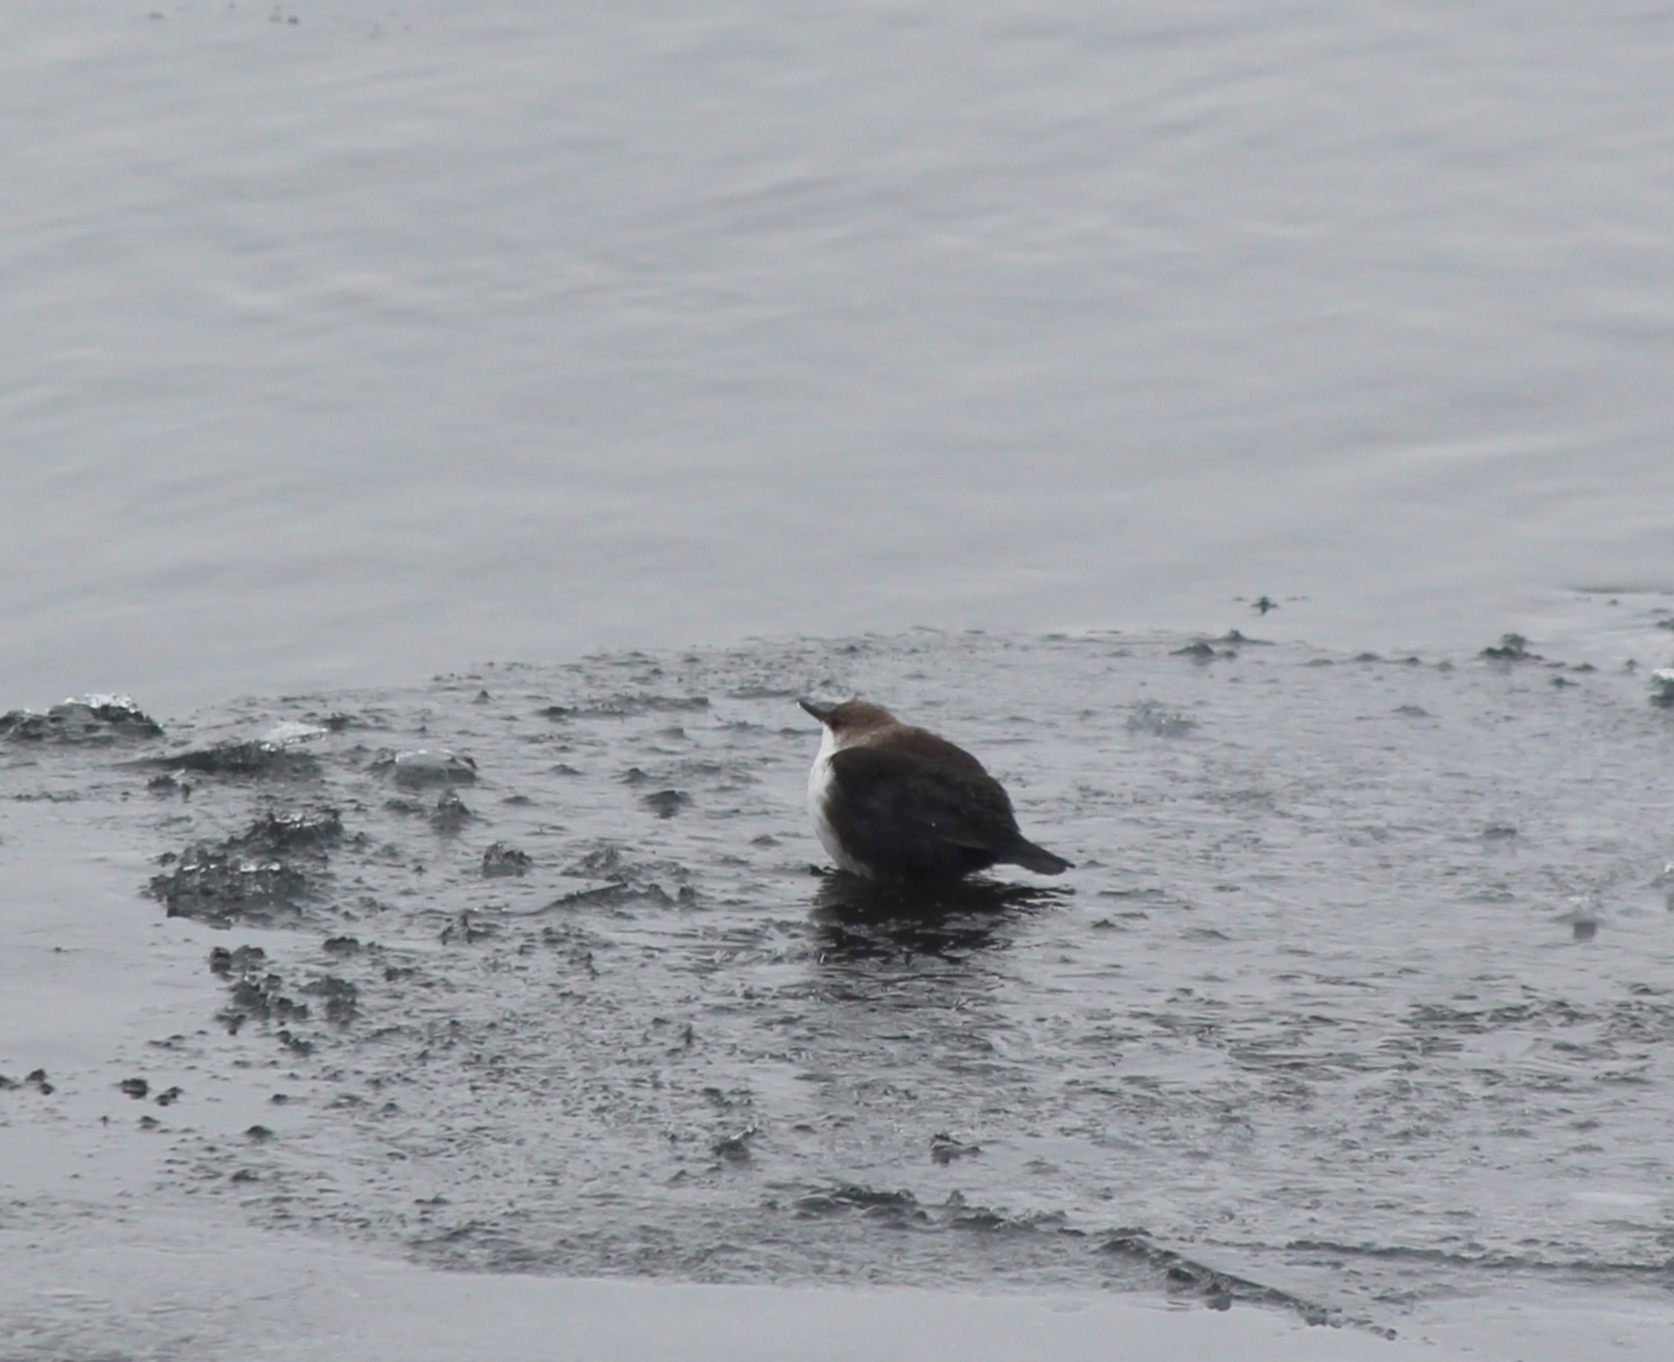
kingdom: Animalia
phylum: Chordata
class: Aves
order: Passeriformes
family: Cinclidae
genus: Cinclus
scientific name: Cinclus cinclus
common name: White-throated dipper
